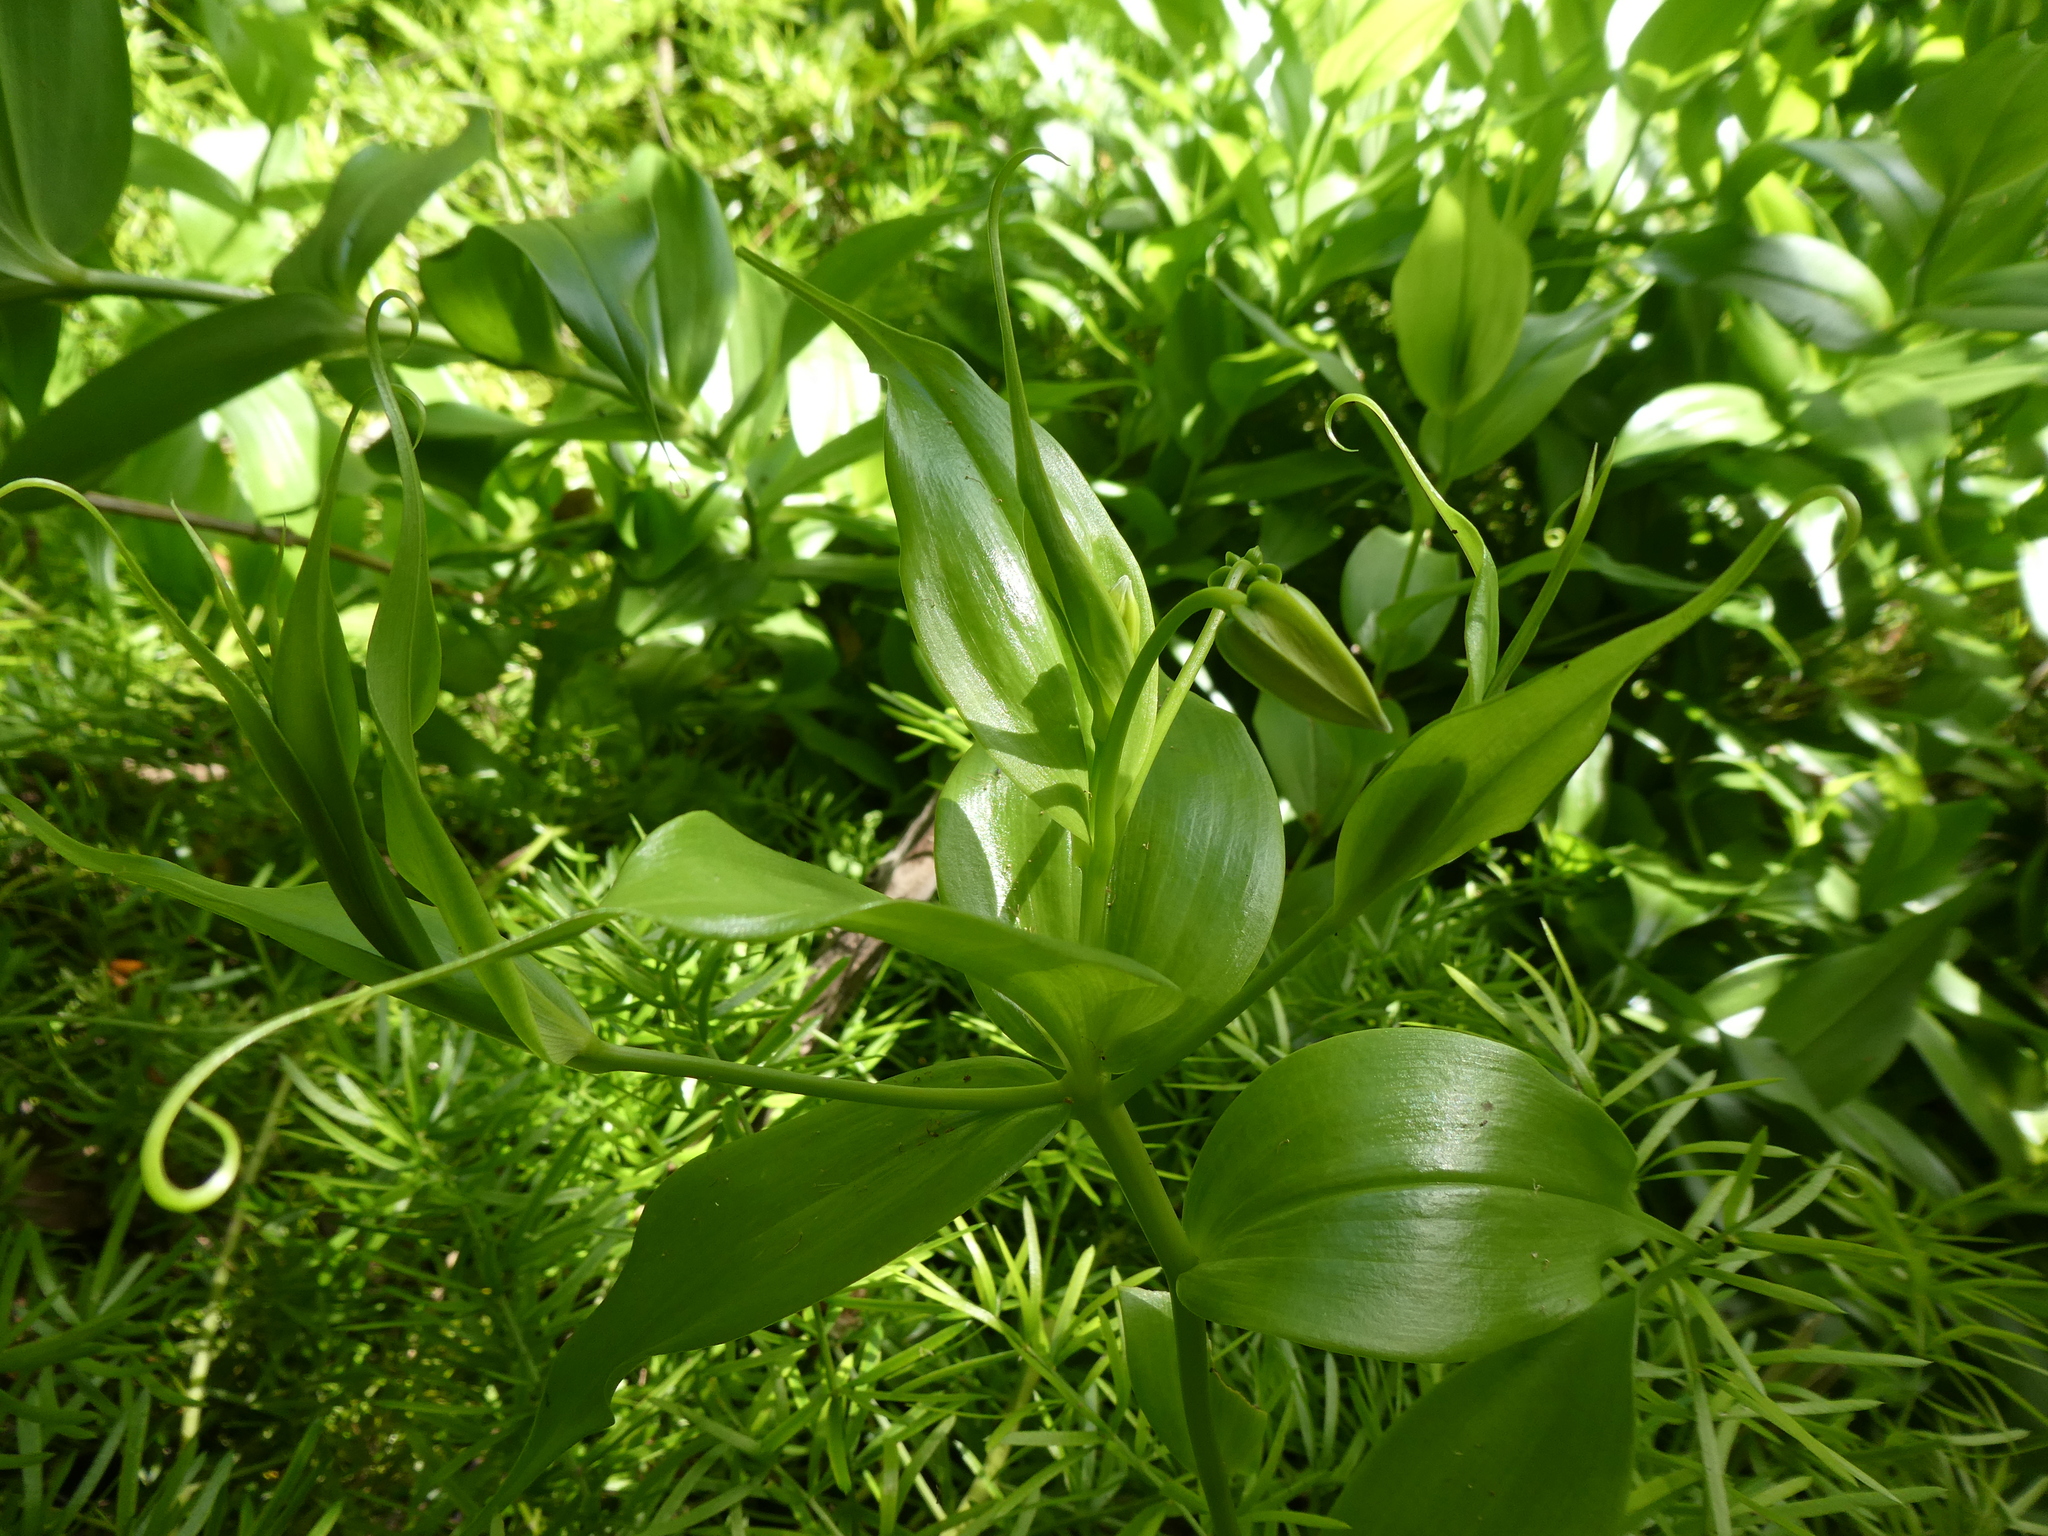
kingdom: Plantae
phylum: Tracheophyta
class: Liliopsida
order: Liliales
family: Colchicaceae
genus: Gloriosa
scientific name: Gloriosa superba
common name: Flame lily
